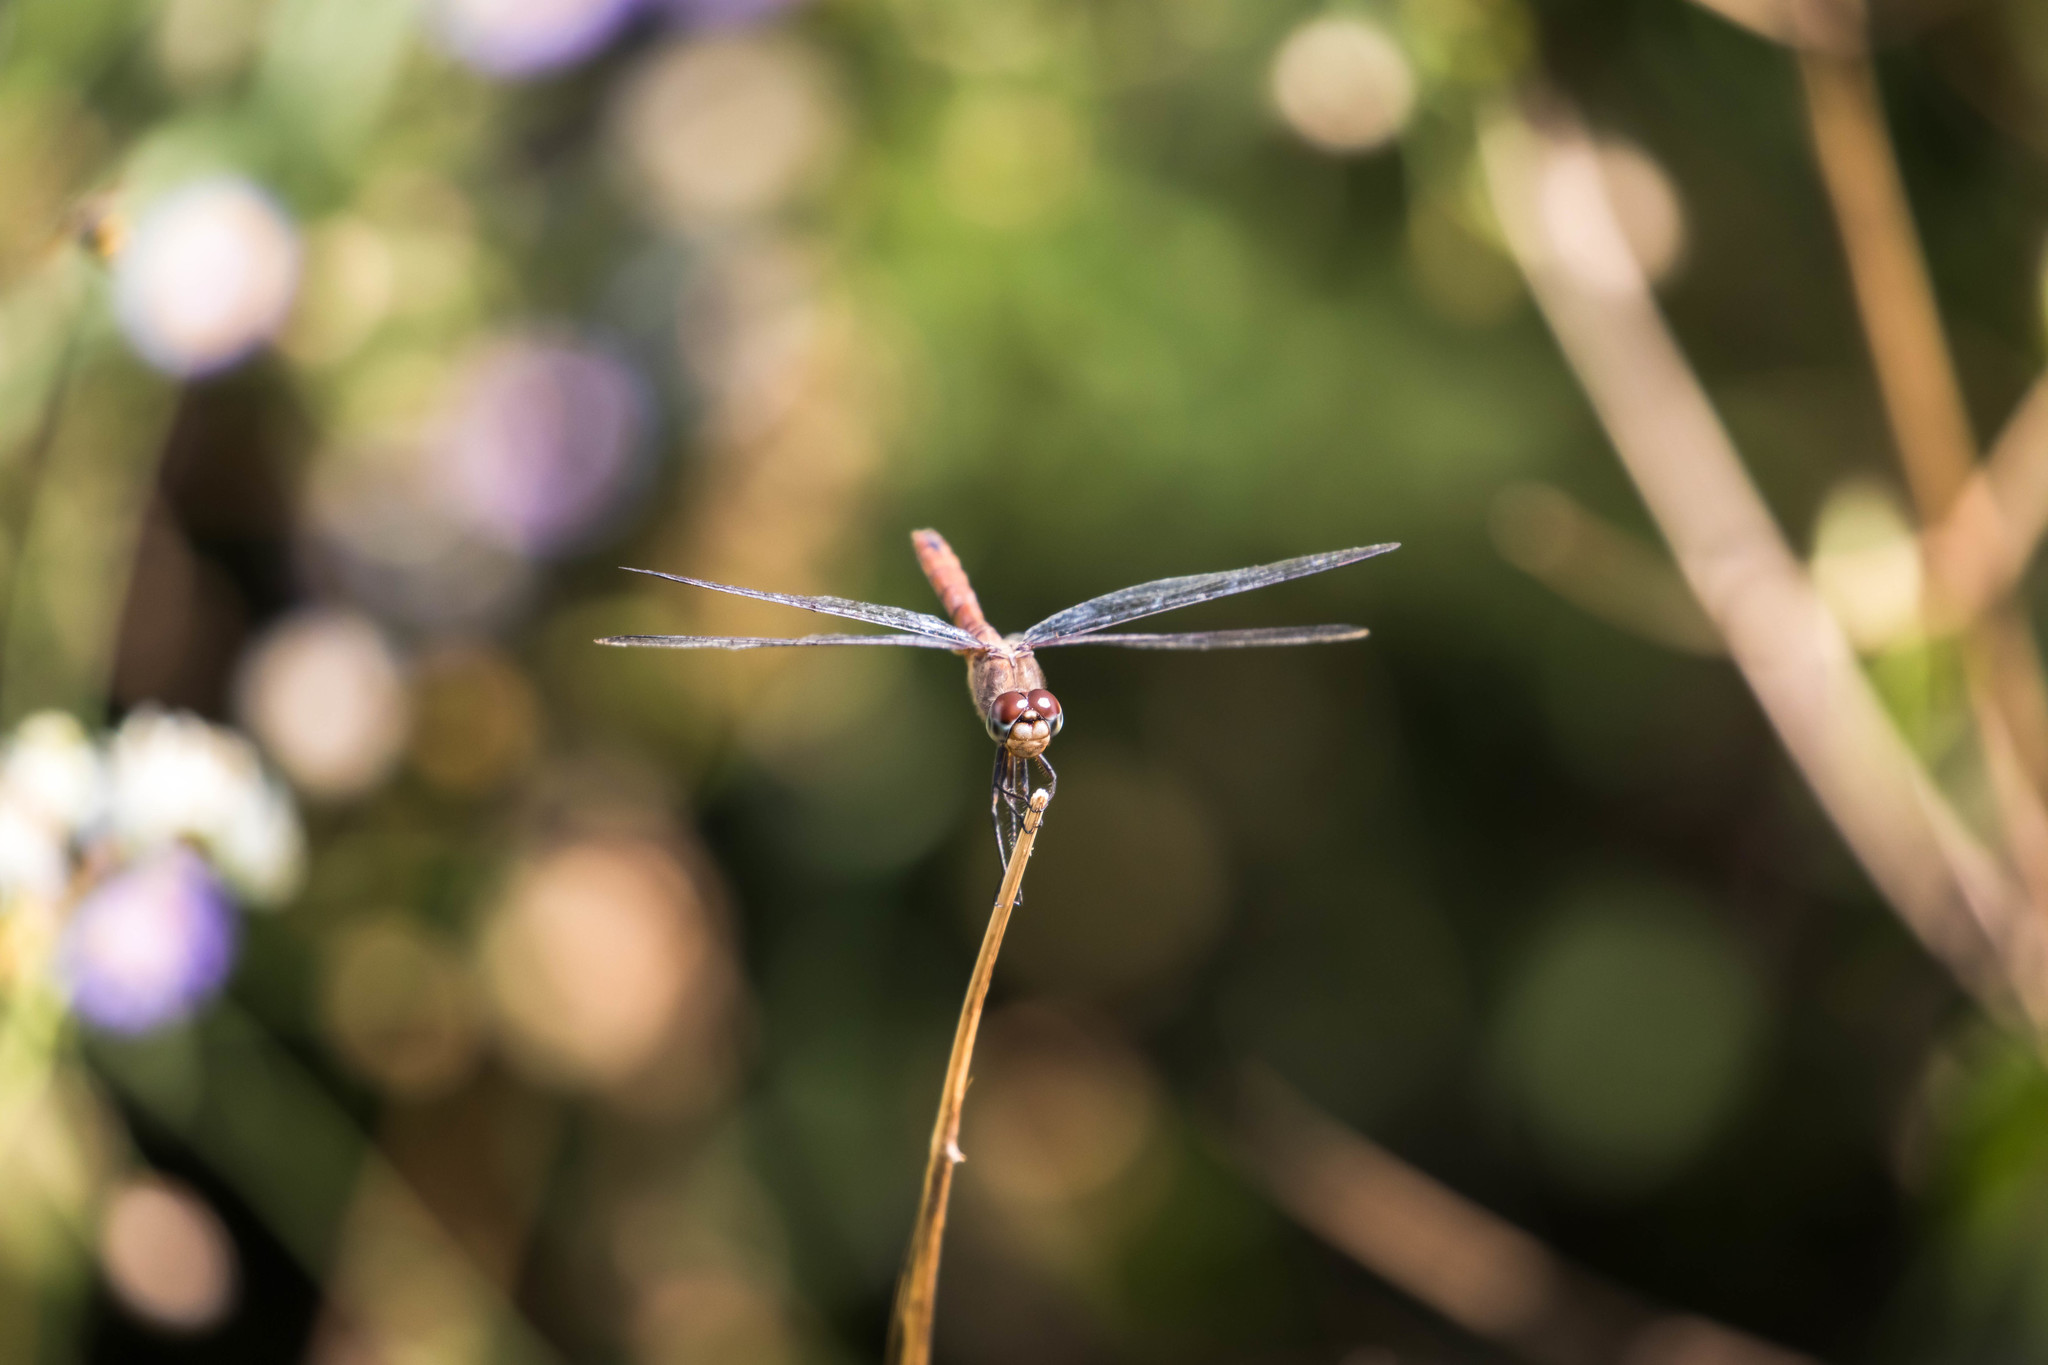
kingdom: Animalia
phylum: Arthropoda
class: Insecta
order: Odonata
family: Libellulidae
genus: Brachymesia
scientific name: Brachymesia furcata
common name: Red-taled pennant
